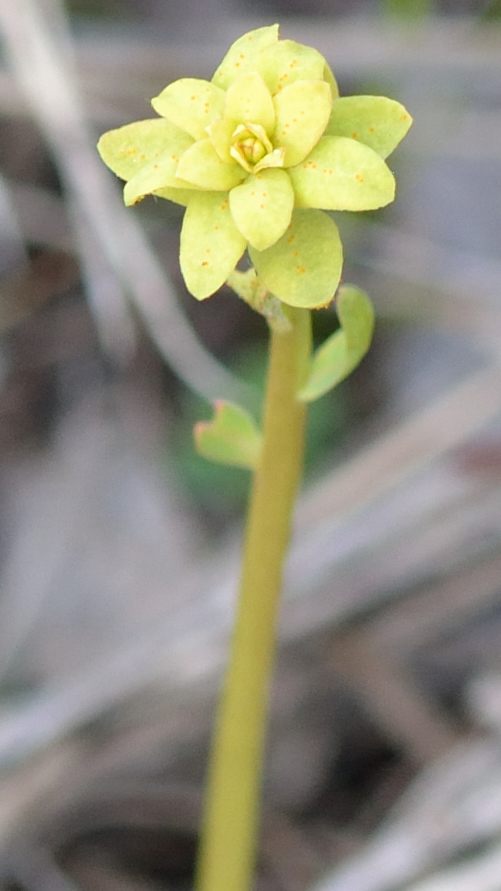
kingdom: Plantae
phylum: Tracheophyta
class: Magnoliopsida
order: Malpighiales
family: Euphorbiaceae
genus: Euphorbia
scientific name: Euphorbia virgata
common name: Leafy spurge
